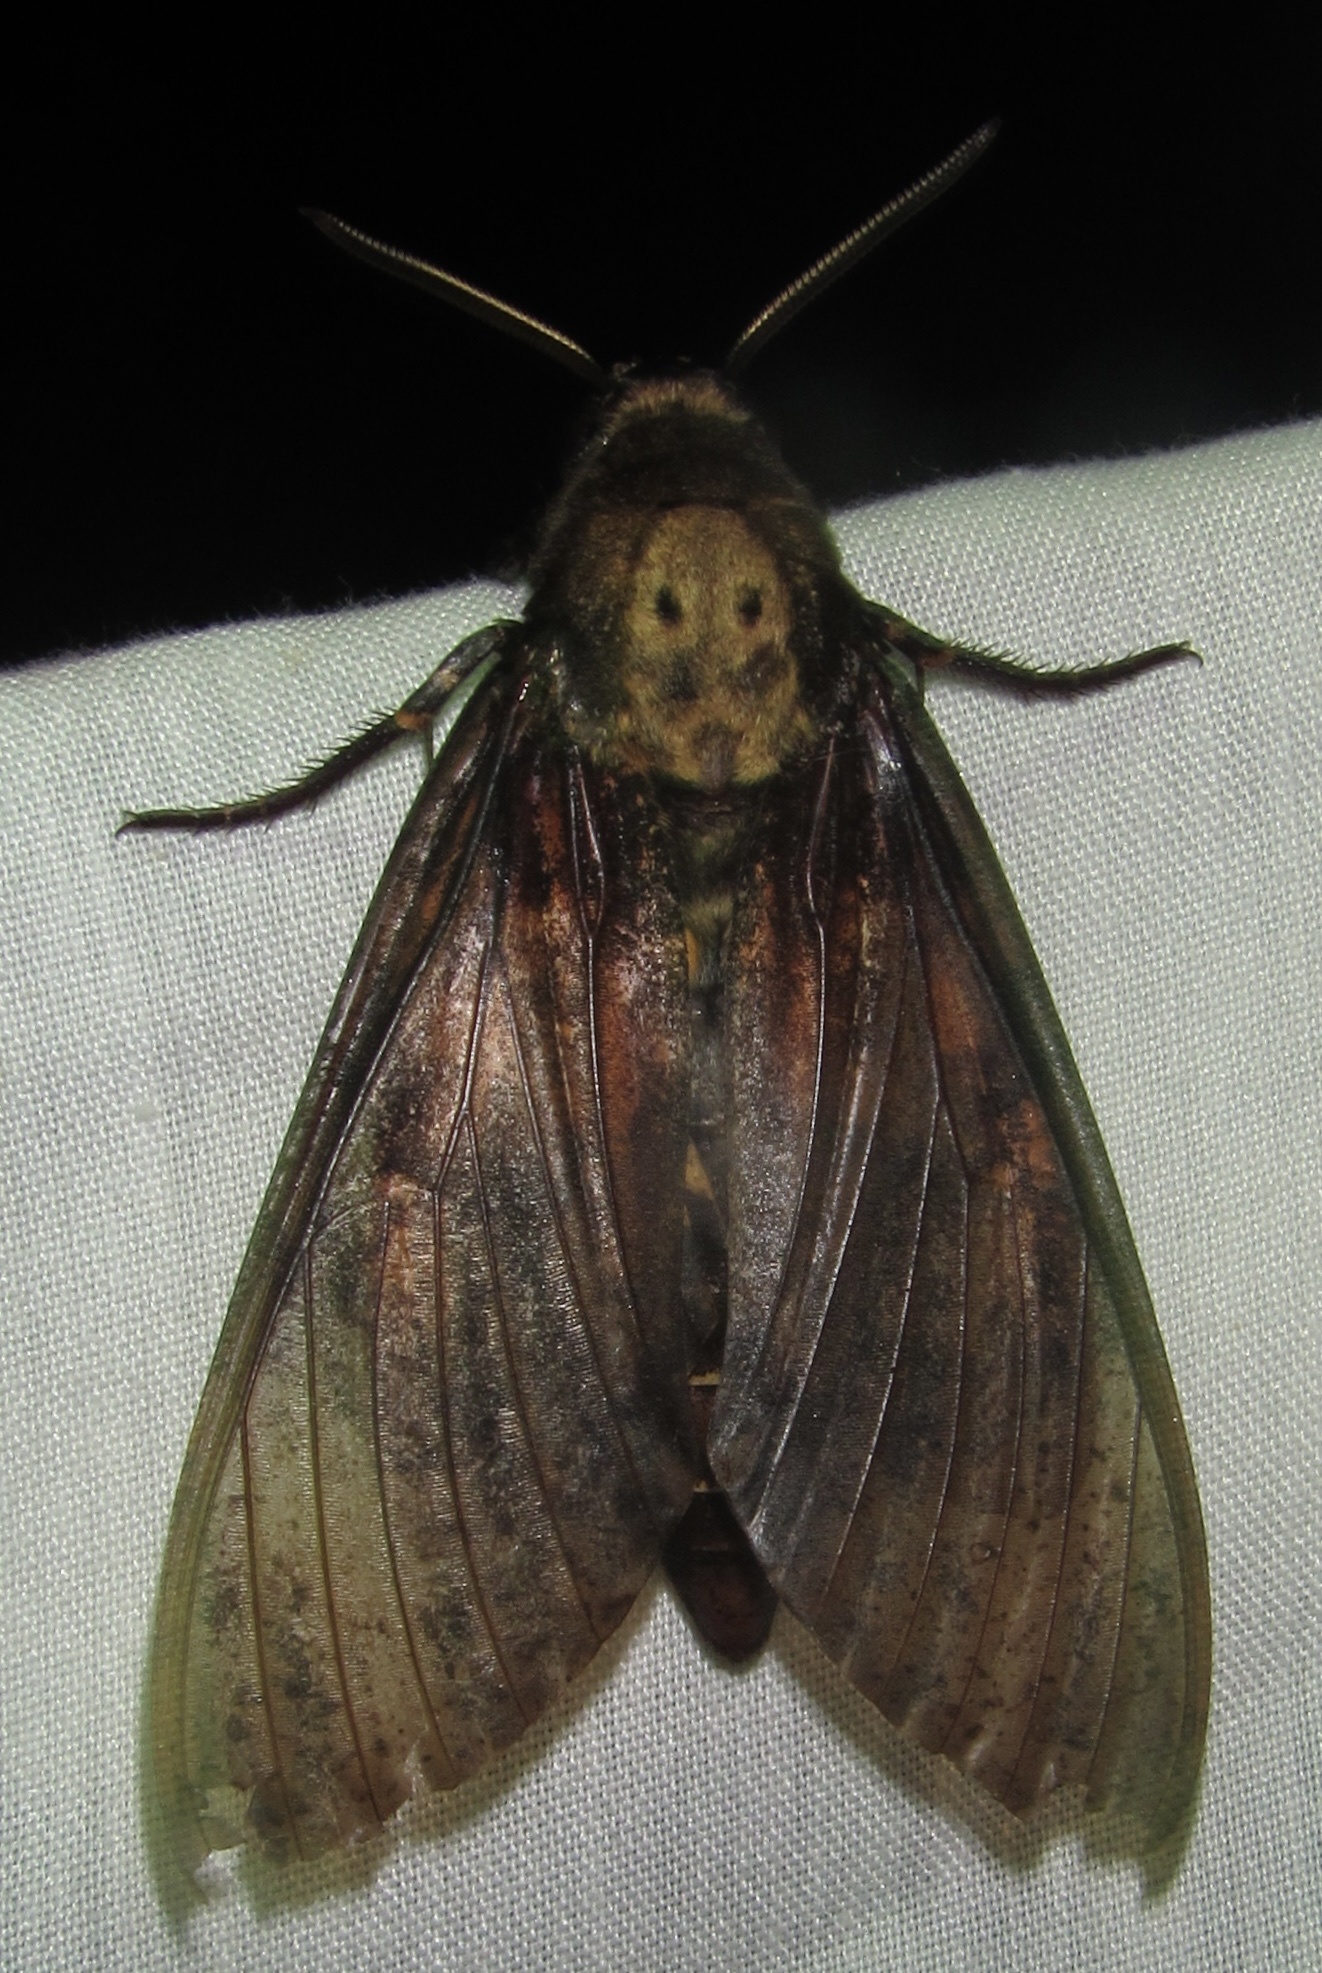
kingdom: Animalia
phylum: Arthropoda
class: Insecta
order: Lepidoptera
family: Sphingidae
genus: Acherontia
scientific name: Acherontia atropos
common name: Death's-head hawk moth
